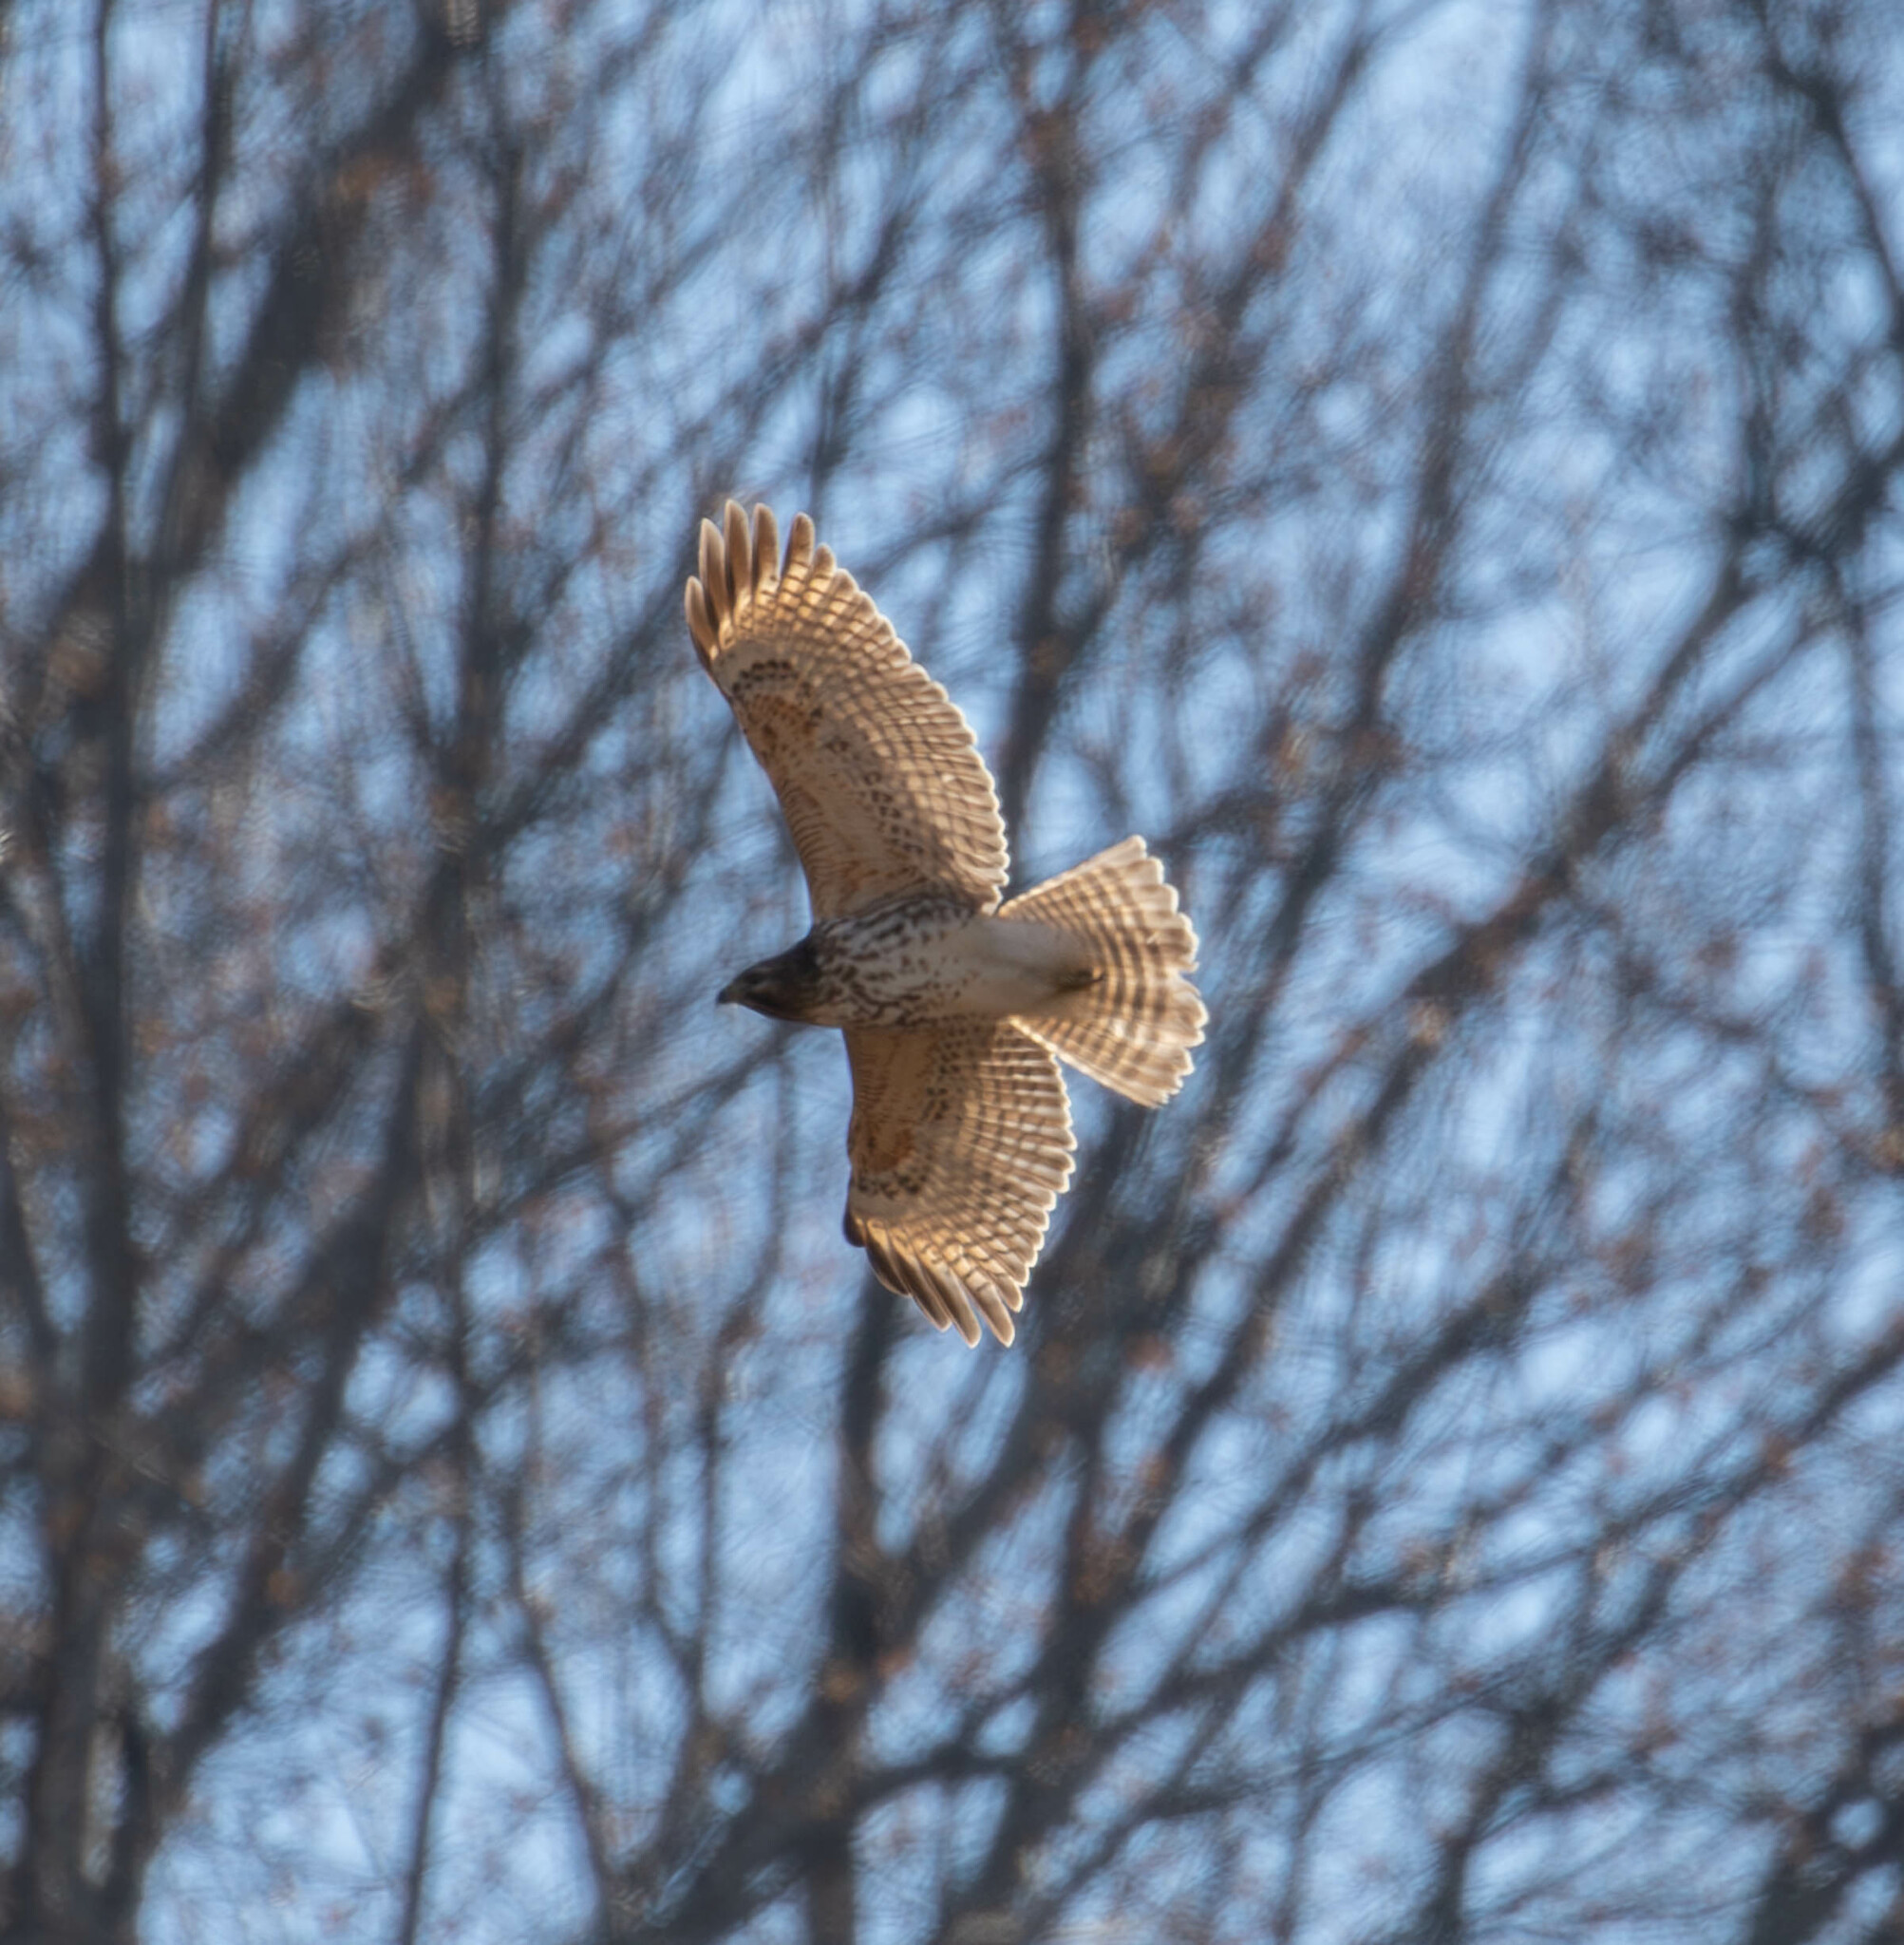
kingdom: Animalia
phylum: Chordata
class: Aves
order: Accipitriformes
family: Accipitridae
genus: Buteo
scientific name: Buteo lineatus
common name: Red-shouldered hawk
